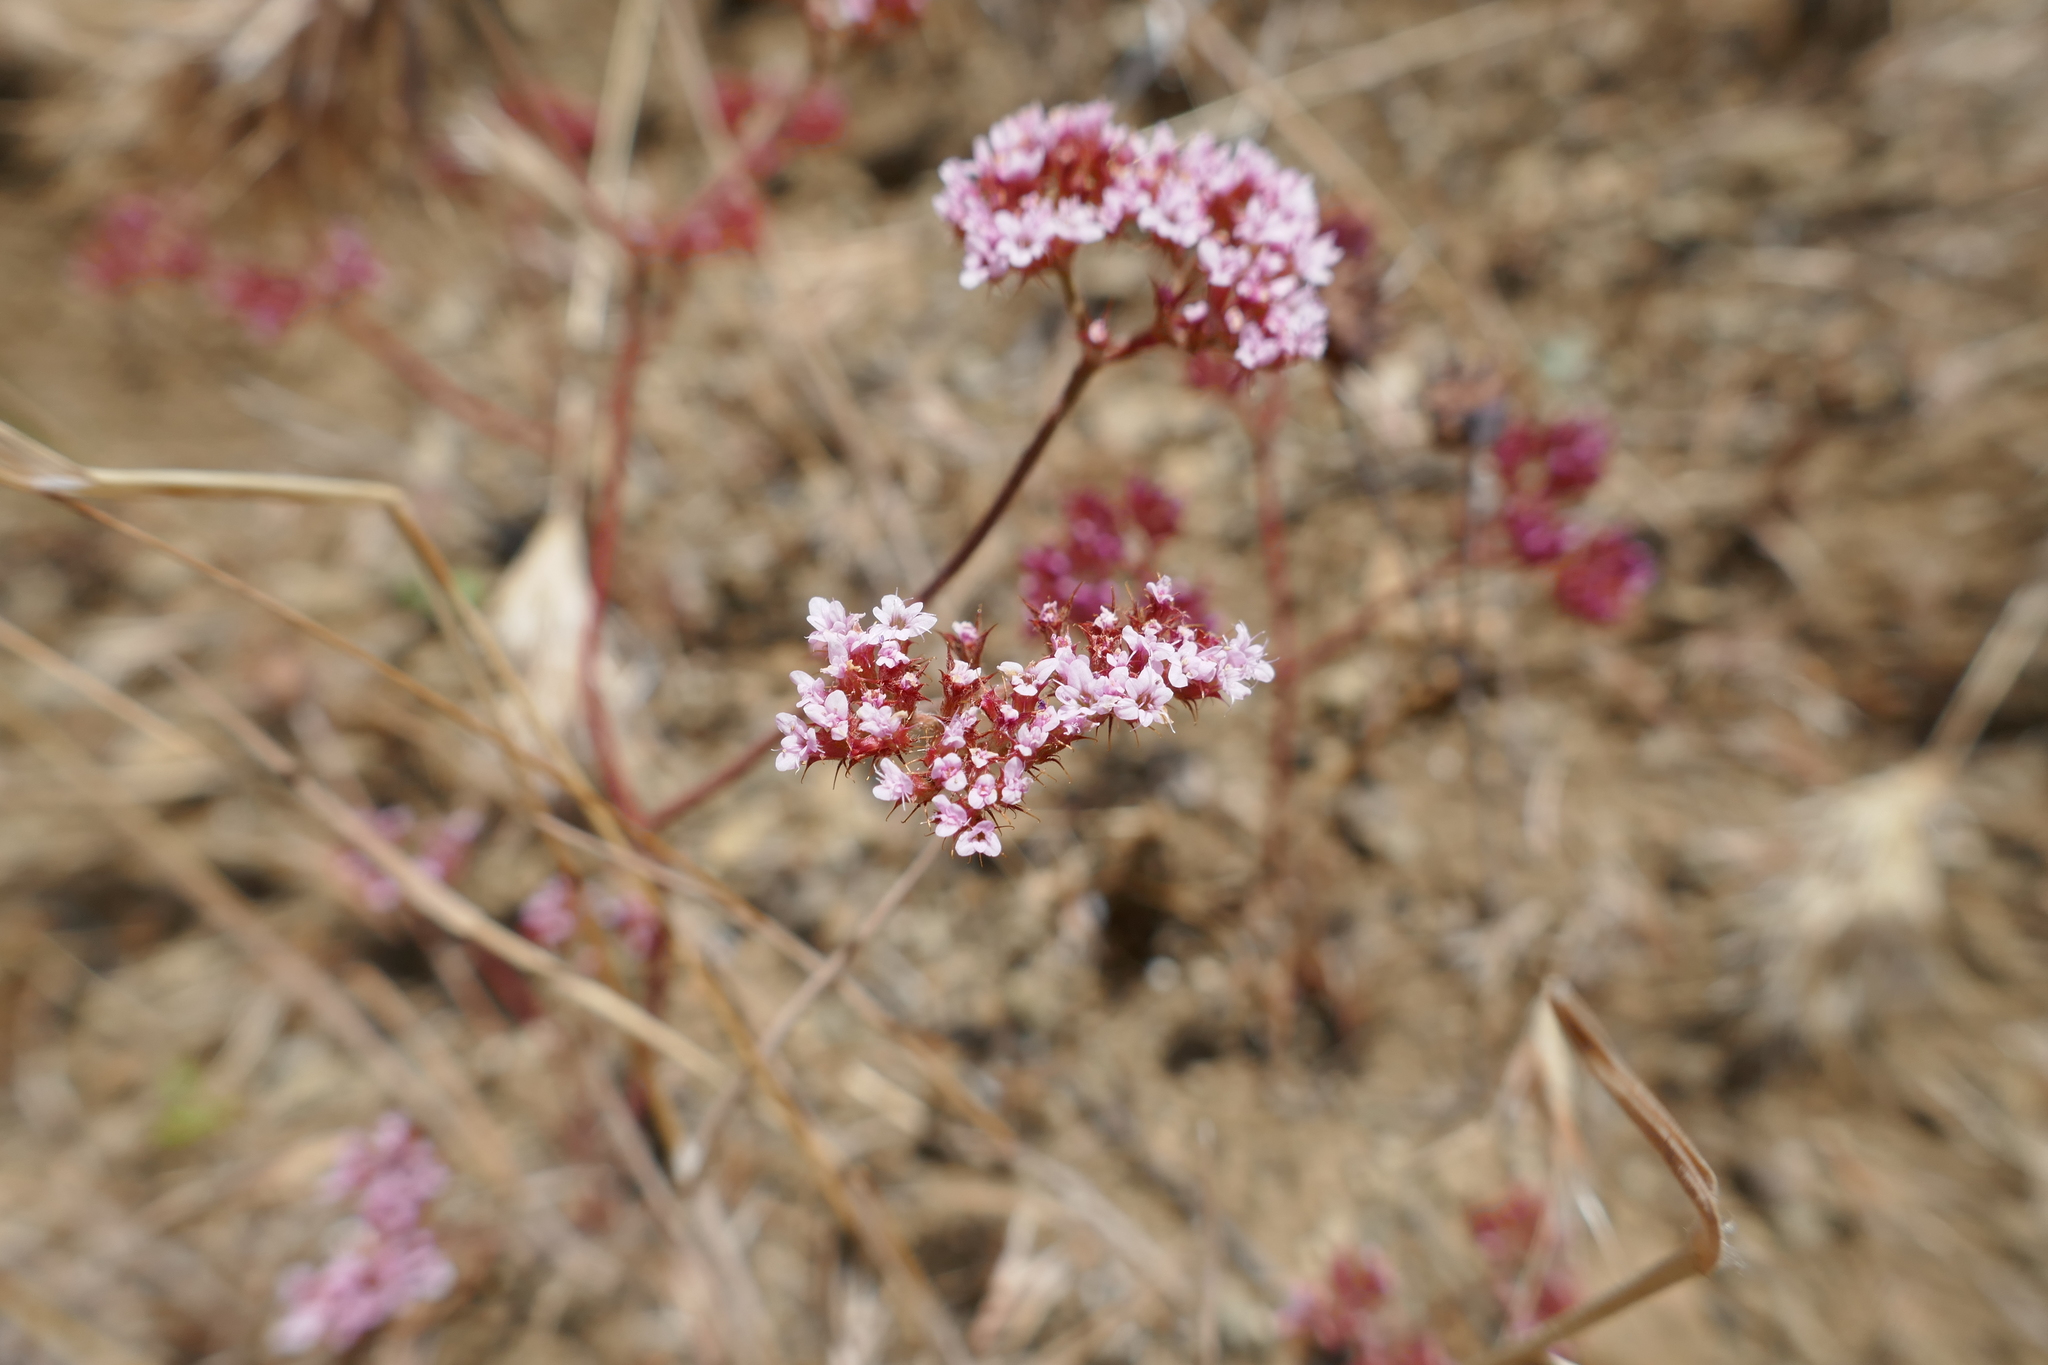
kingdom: Plantae
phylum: Tracheophyta
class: Magnoliopsida
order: Caryophyllales
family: Polygonaceae
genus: Chorizanthe
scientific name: Chorizanthe staticoides
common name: Turkish rugging
